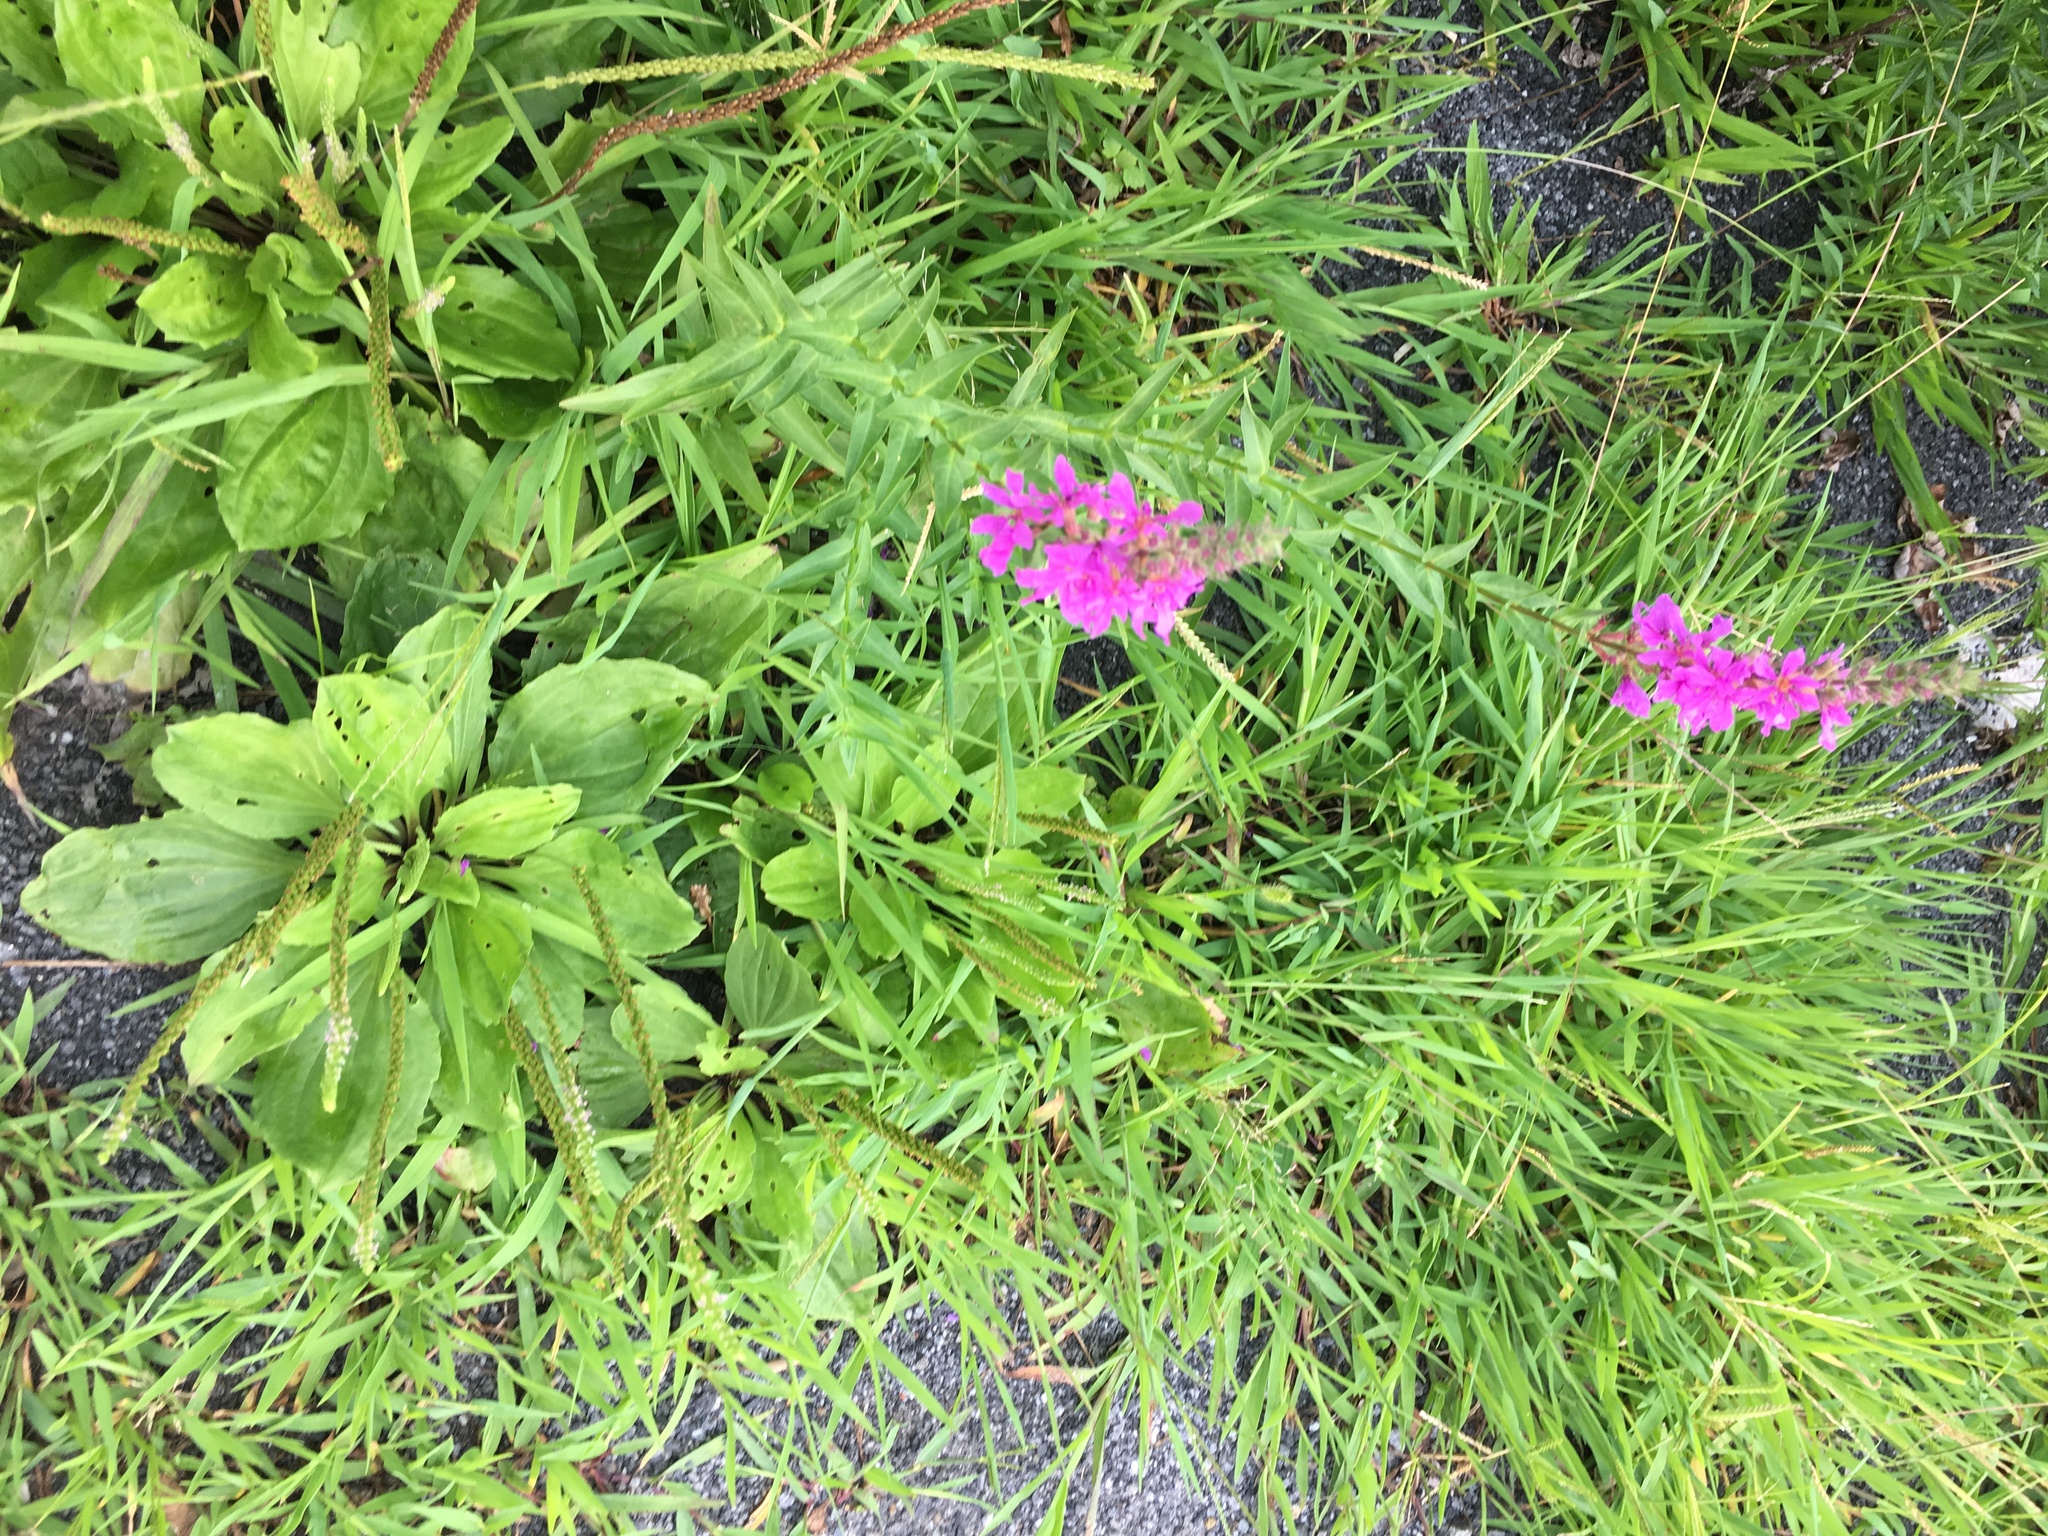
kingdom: Plantae
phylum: Tracheophyta
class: Magnoliopsida
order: Myrtales
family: Lythraceae
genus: Lythrum
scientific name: Lythrum salicaria
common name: Purple loosestrife
